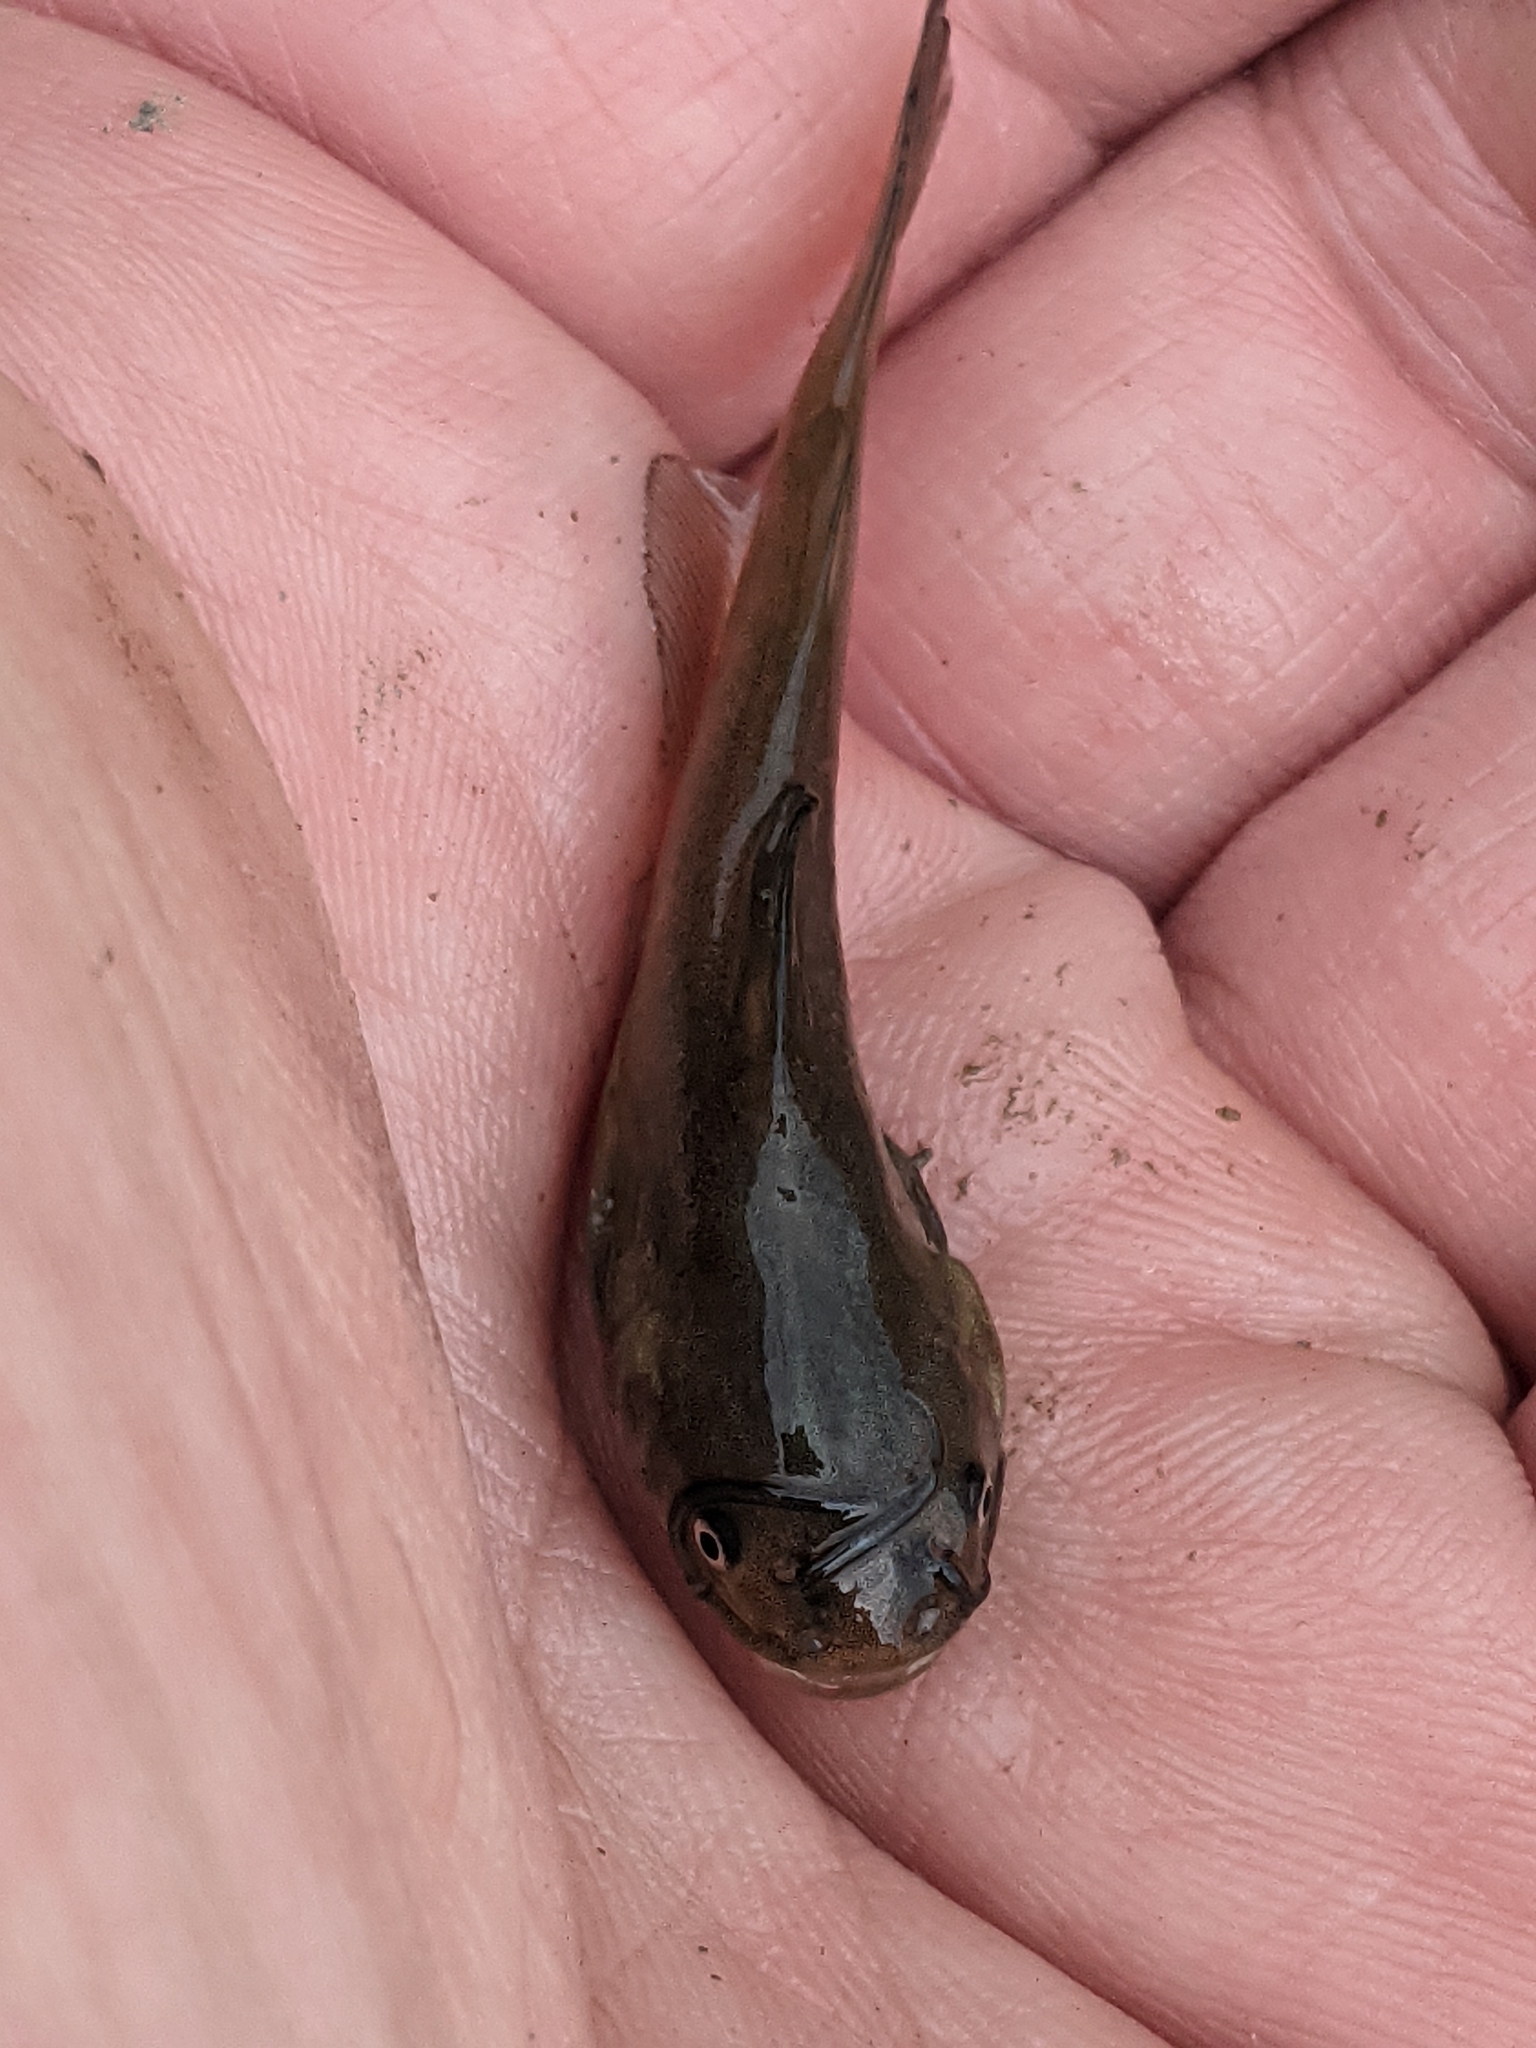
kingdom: Animalia
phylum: Chordata
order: Siluriformes
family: Ictaluridae
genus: Ameiurus
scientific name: Ameiurus nebulosus
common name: Brown bullhead
